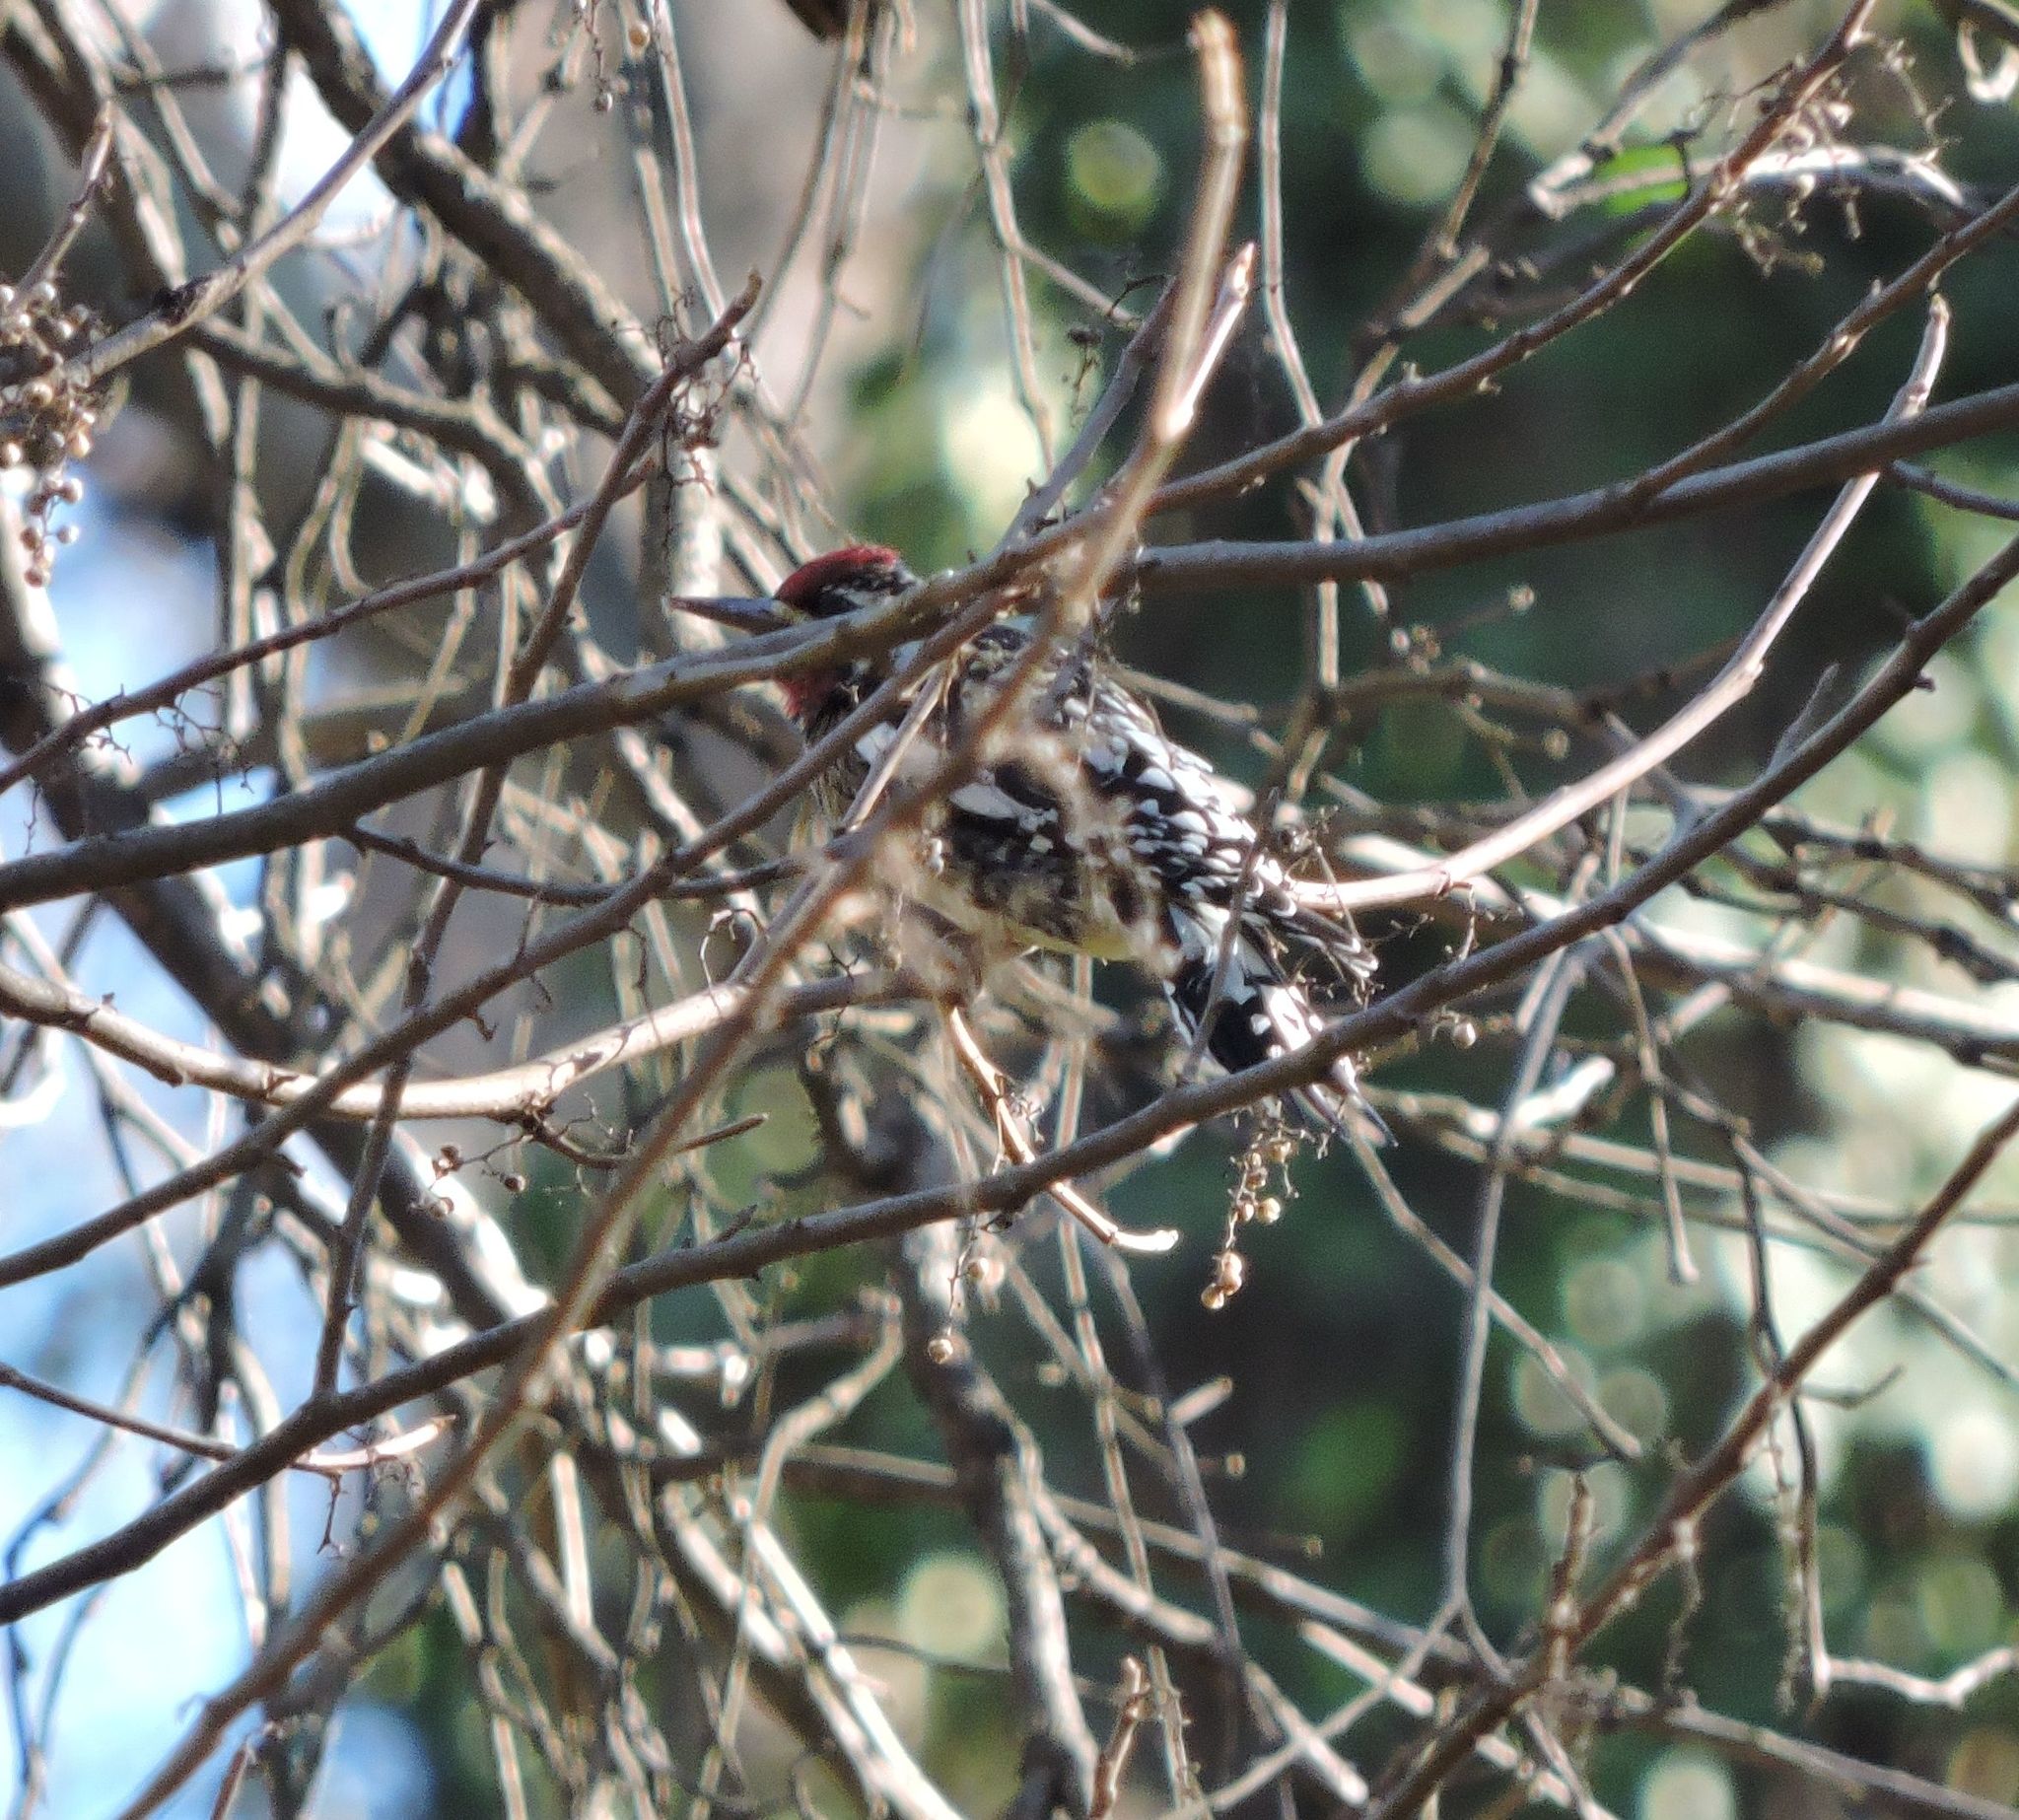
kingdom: Animalia
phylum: Chordata
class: Aves
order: Piciformes
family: Picidae
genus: Sphyrapicus
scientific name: Sphyrapicus varius
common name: Yellow-bellied sapsucker
